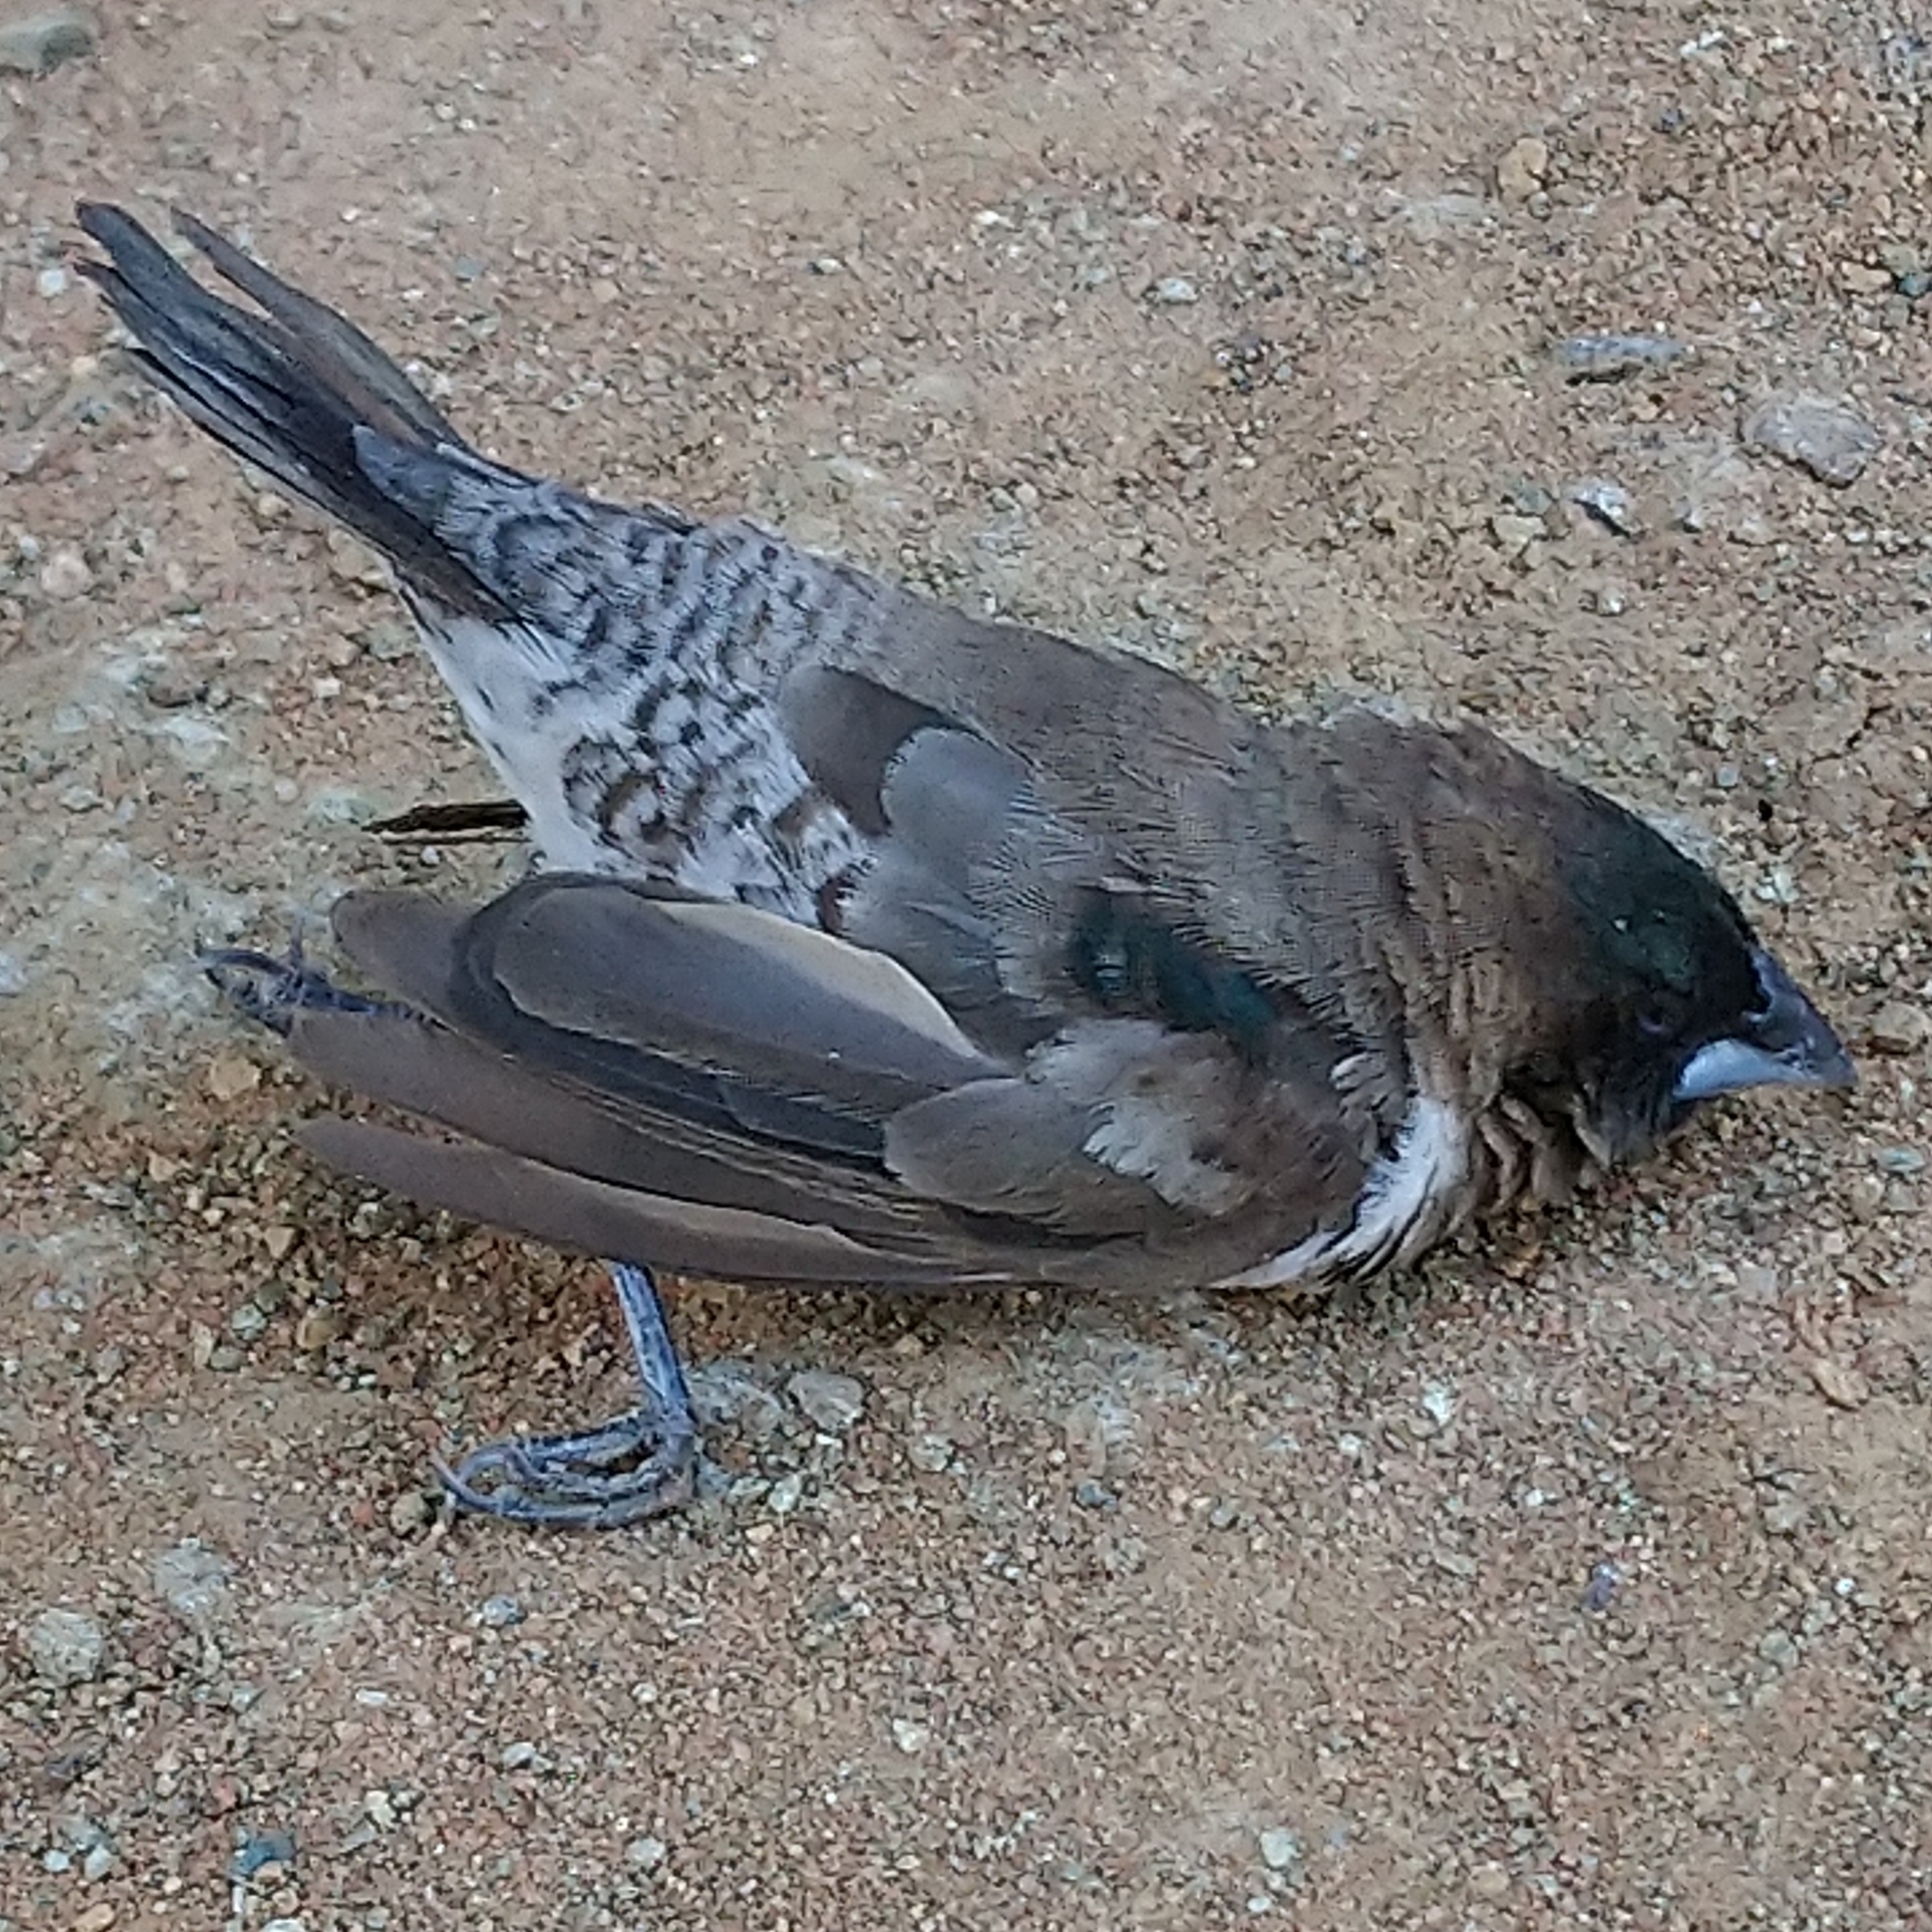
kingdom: Animalia
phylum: Chordata
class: Aves
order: Passeriformes
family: Estrildidae
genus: Lonchura
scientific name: Lonchura cucullata
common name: Bronze mannikin
